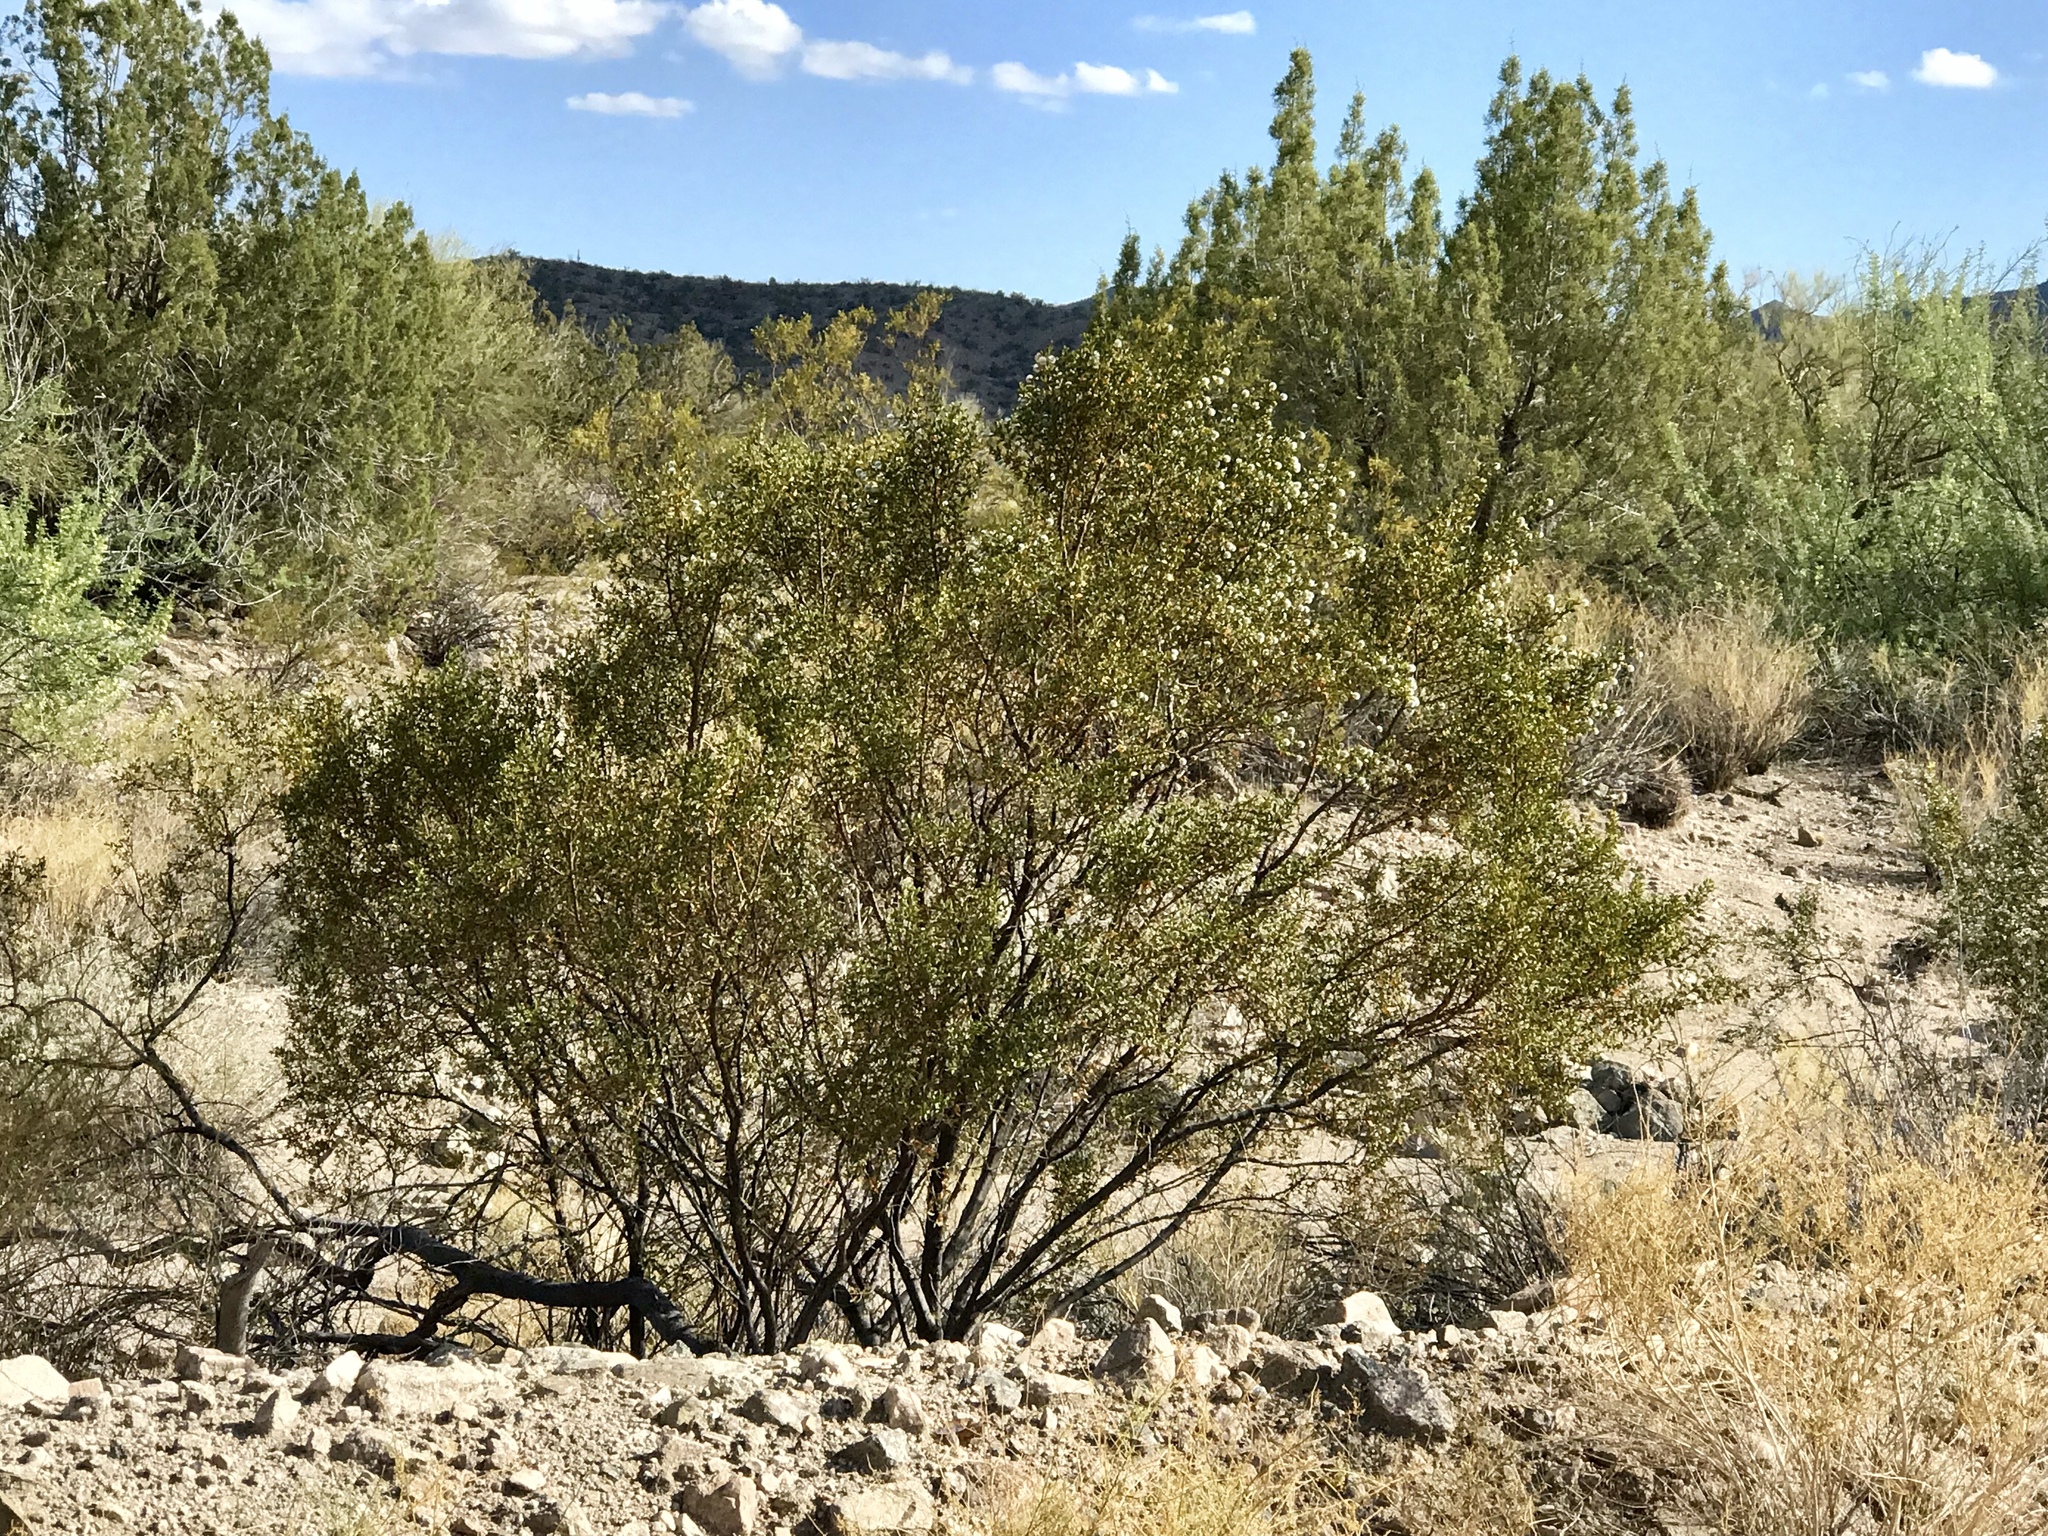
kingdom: Plantae
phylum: Tracheophyta
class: Magnoliopsida
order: Zygophyllales
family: Zygophyllaceae
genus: Larrea
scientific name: Larrea tridentata
